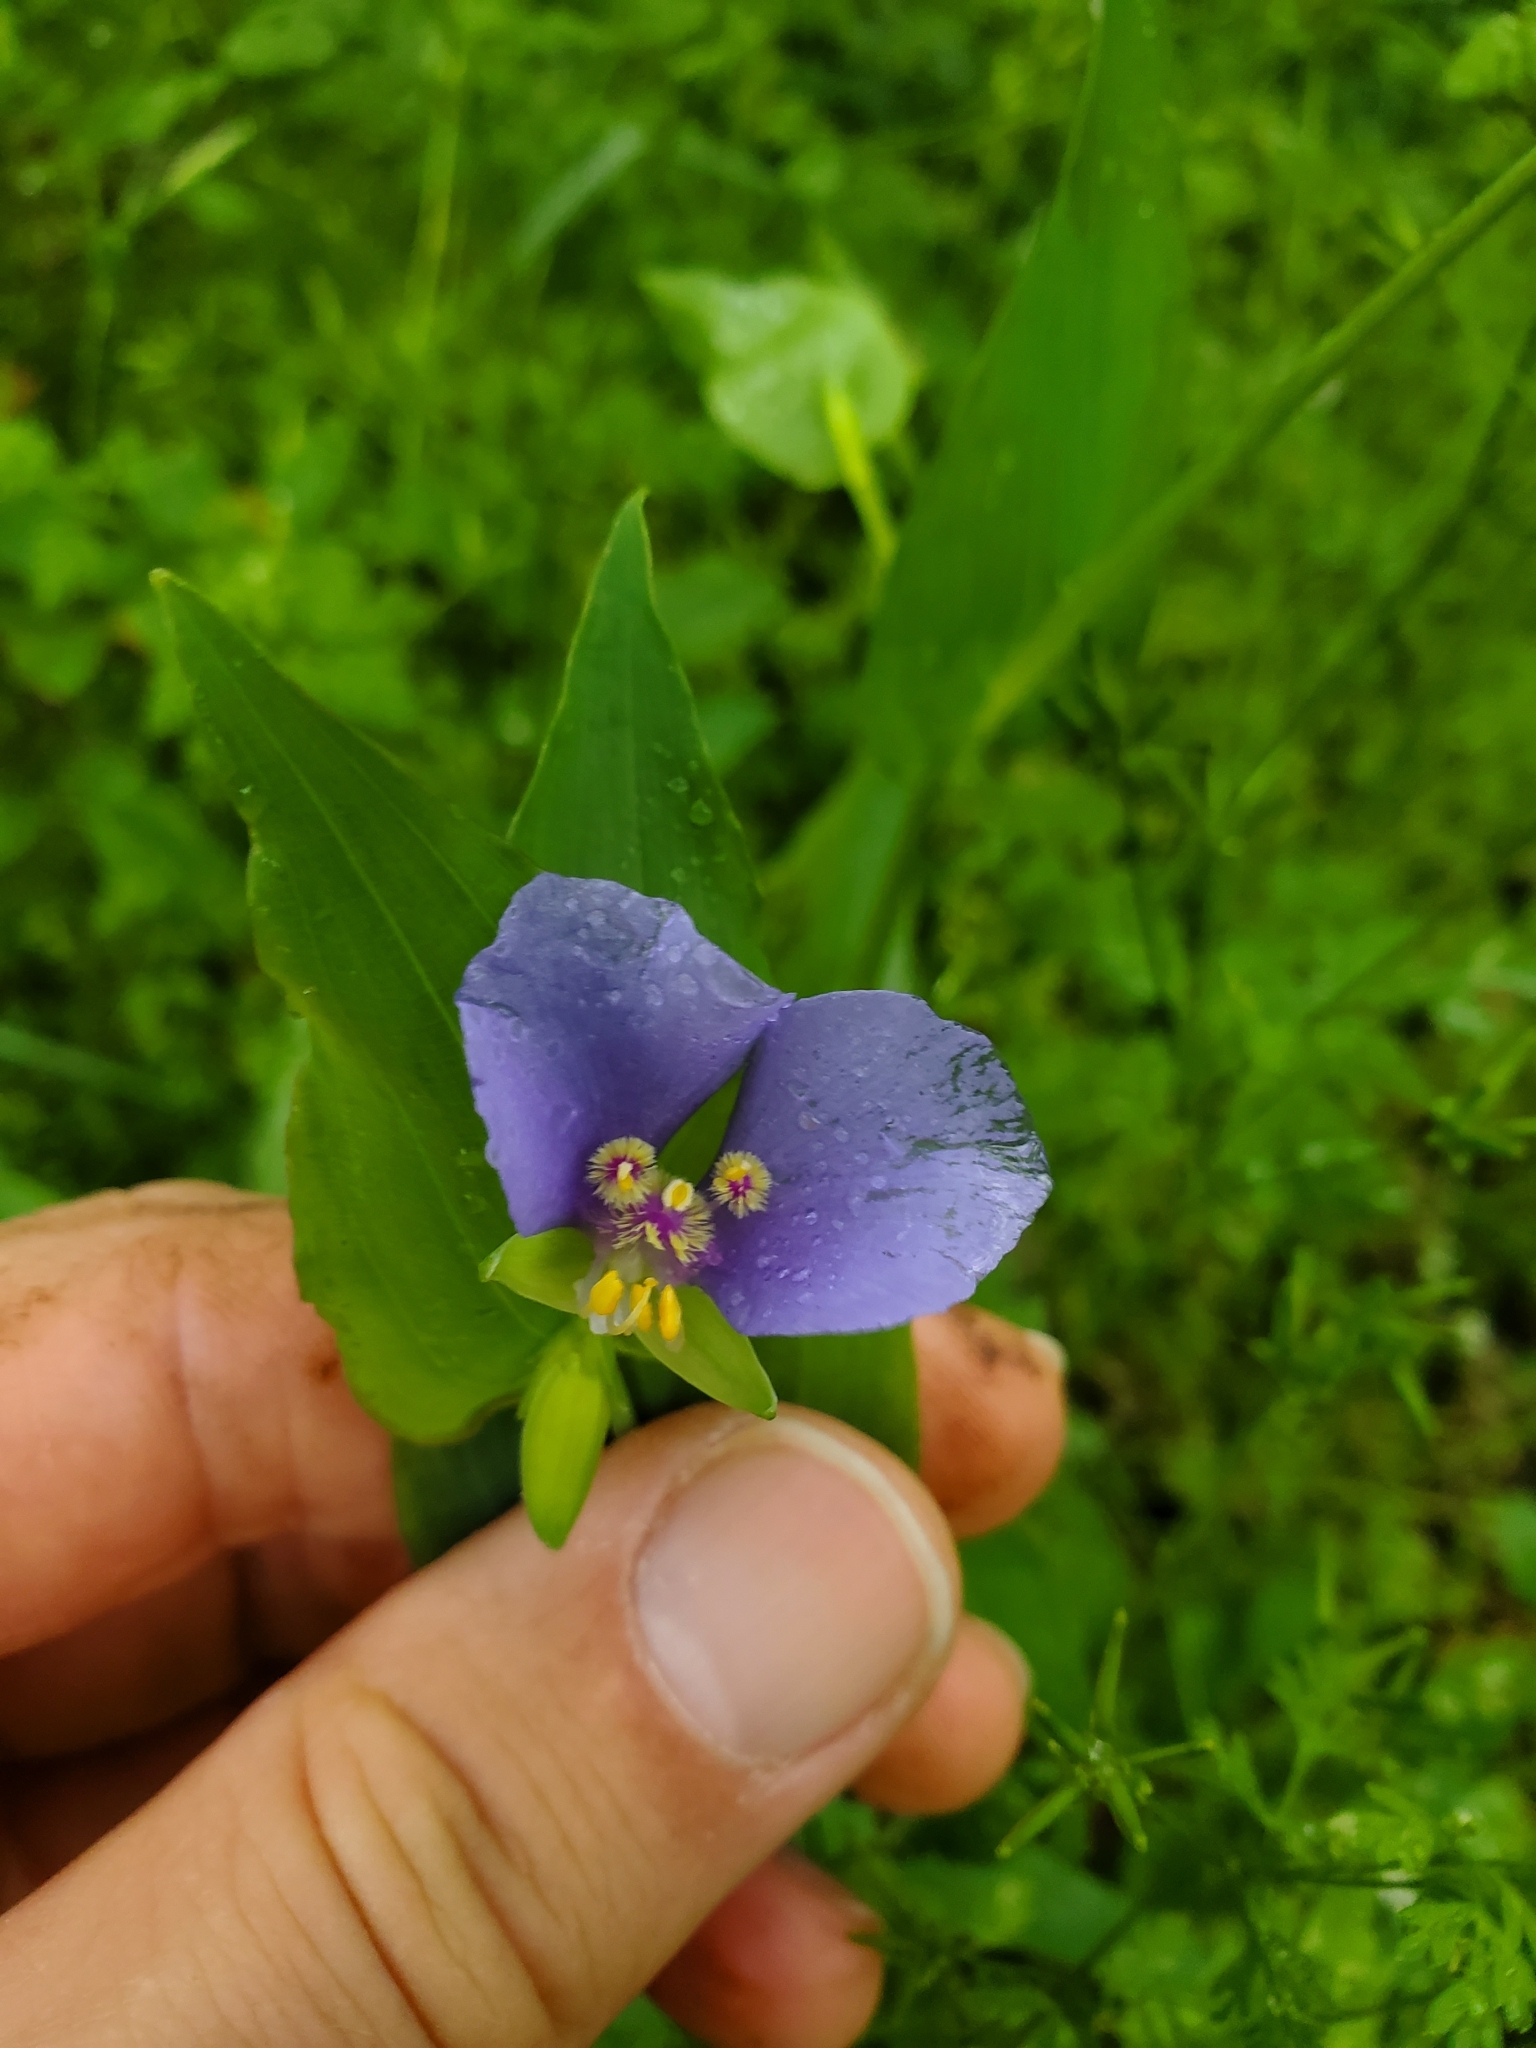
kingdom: Plantae
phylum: Tracheophyta
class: Liliopsida
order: Commelinales
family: Commelinaceae
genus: Tinantia
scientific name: Tinantia anomala
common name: False dayflower
